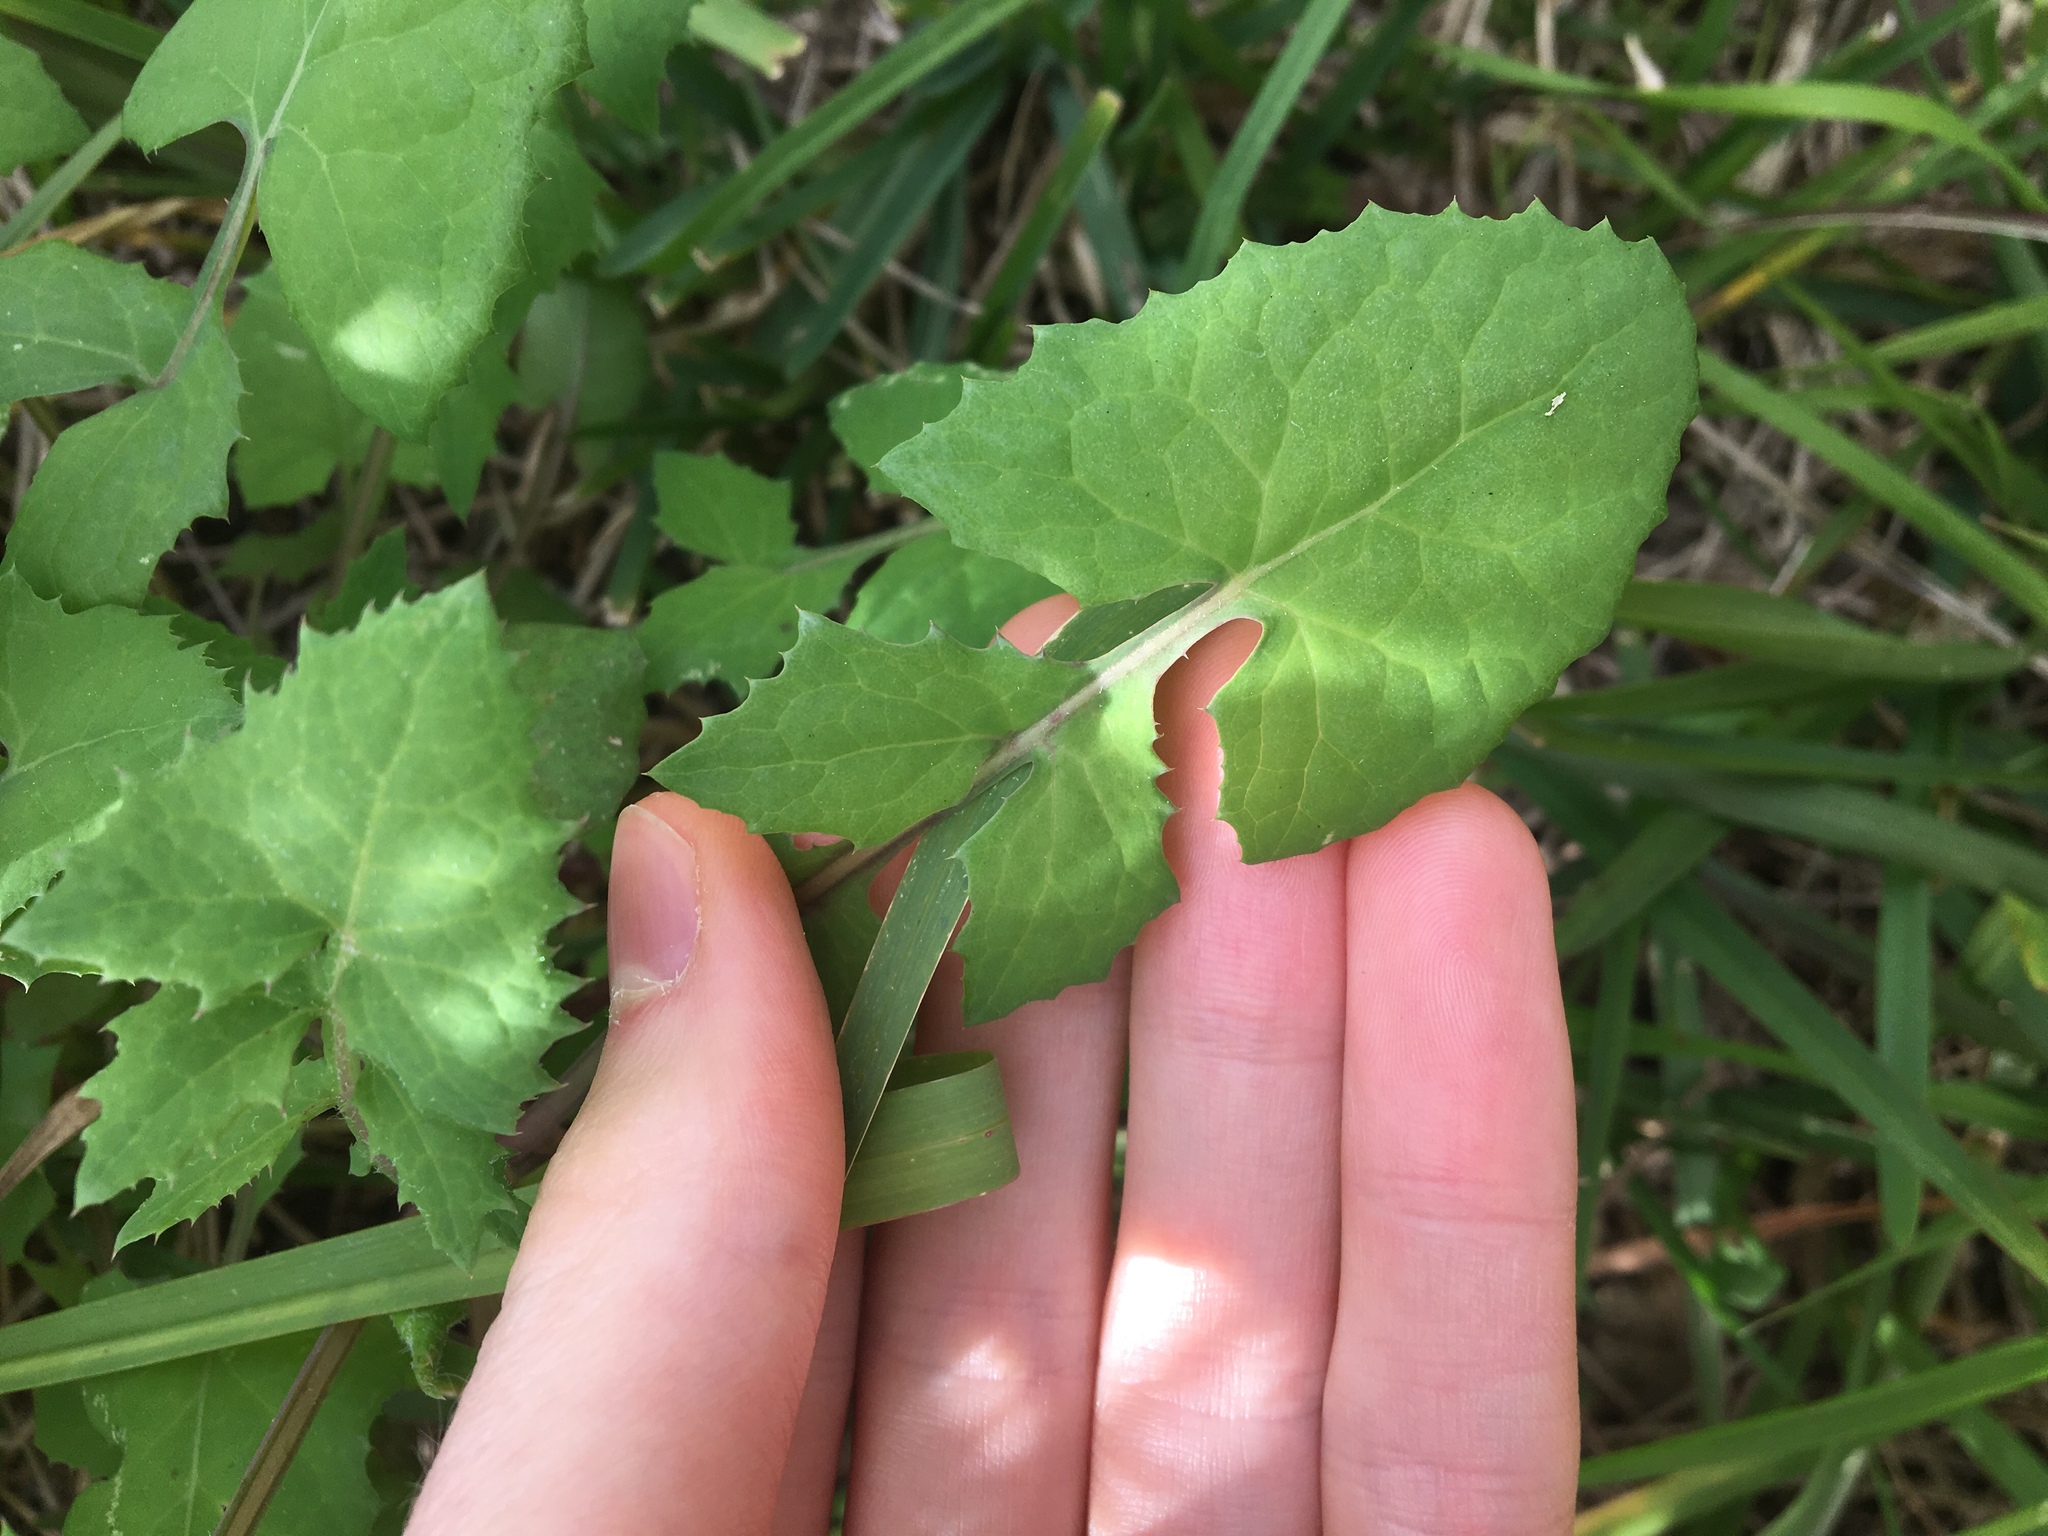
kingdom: Plantae
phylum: Tracheophyta
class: Magnoliopsida
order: Asterales
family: Asteraceae
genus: Sonchus
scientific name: Sonchus oleraceus
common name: Common sowthistle
